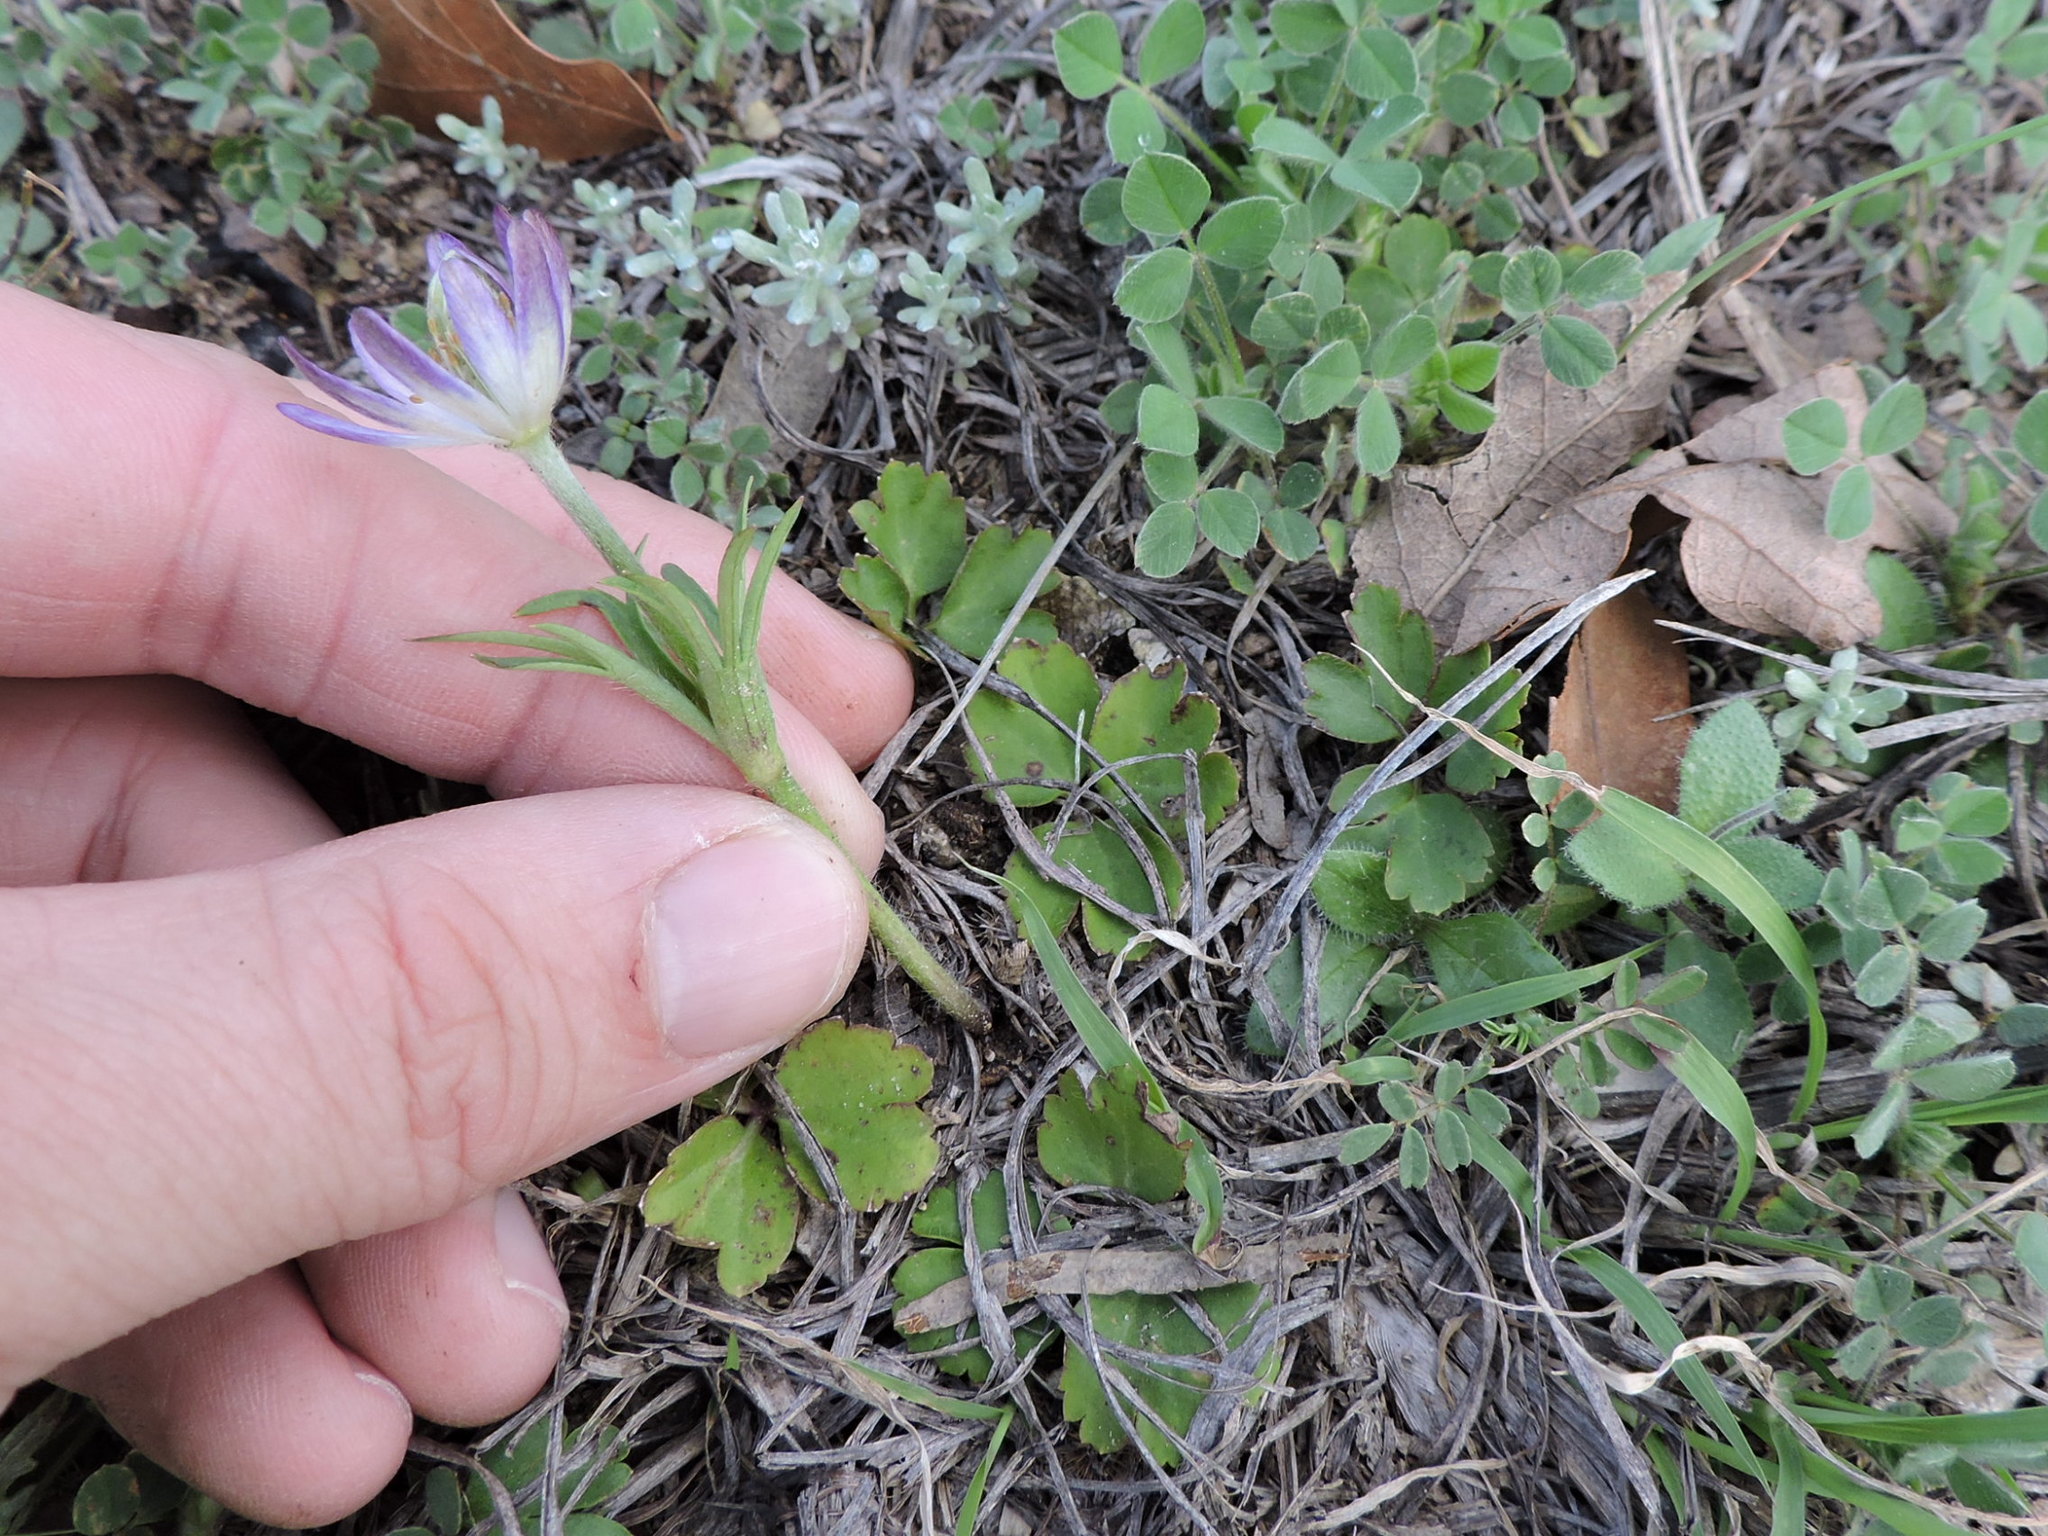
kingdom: Plantae
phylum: Tracheophyta
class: Magnoliopsida
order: Ranunculales
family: Ranunculaceae
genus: Anemone
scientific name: Anemone berlandieri
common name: Ten-petal anemone
